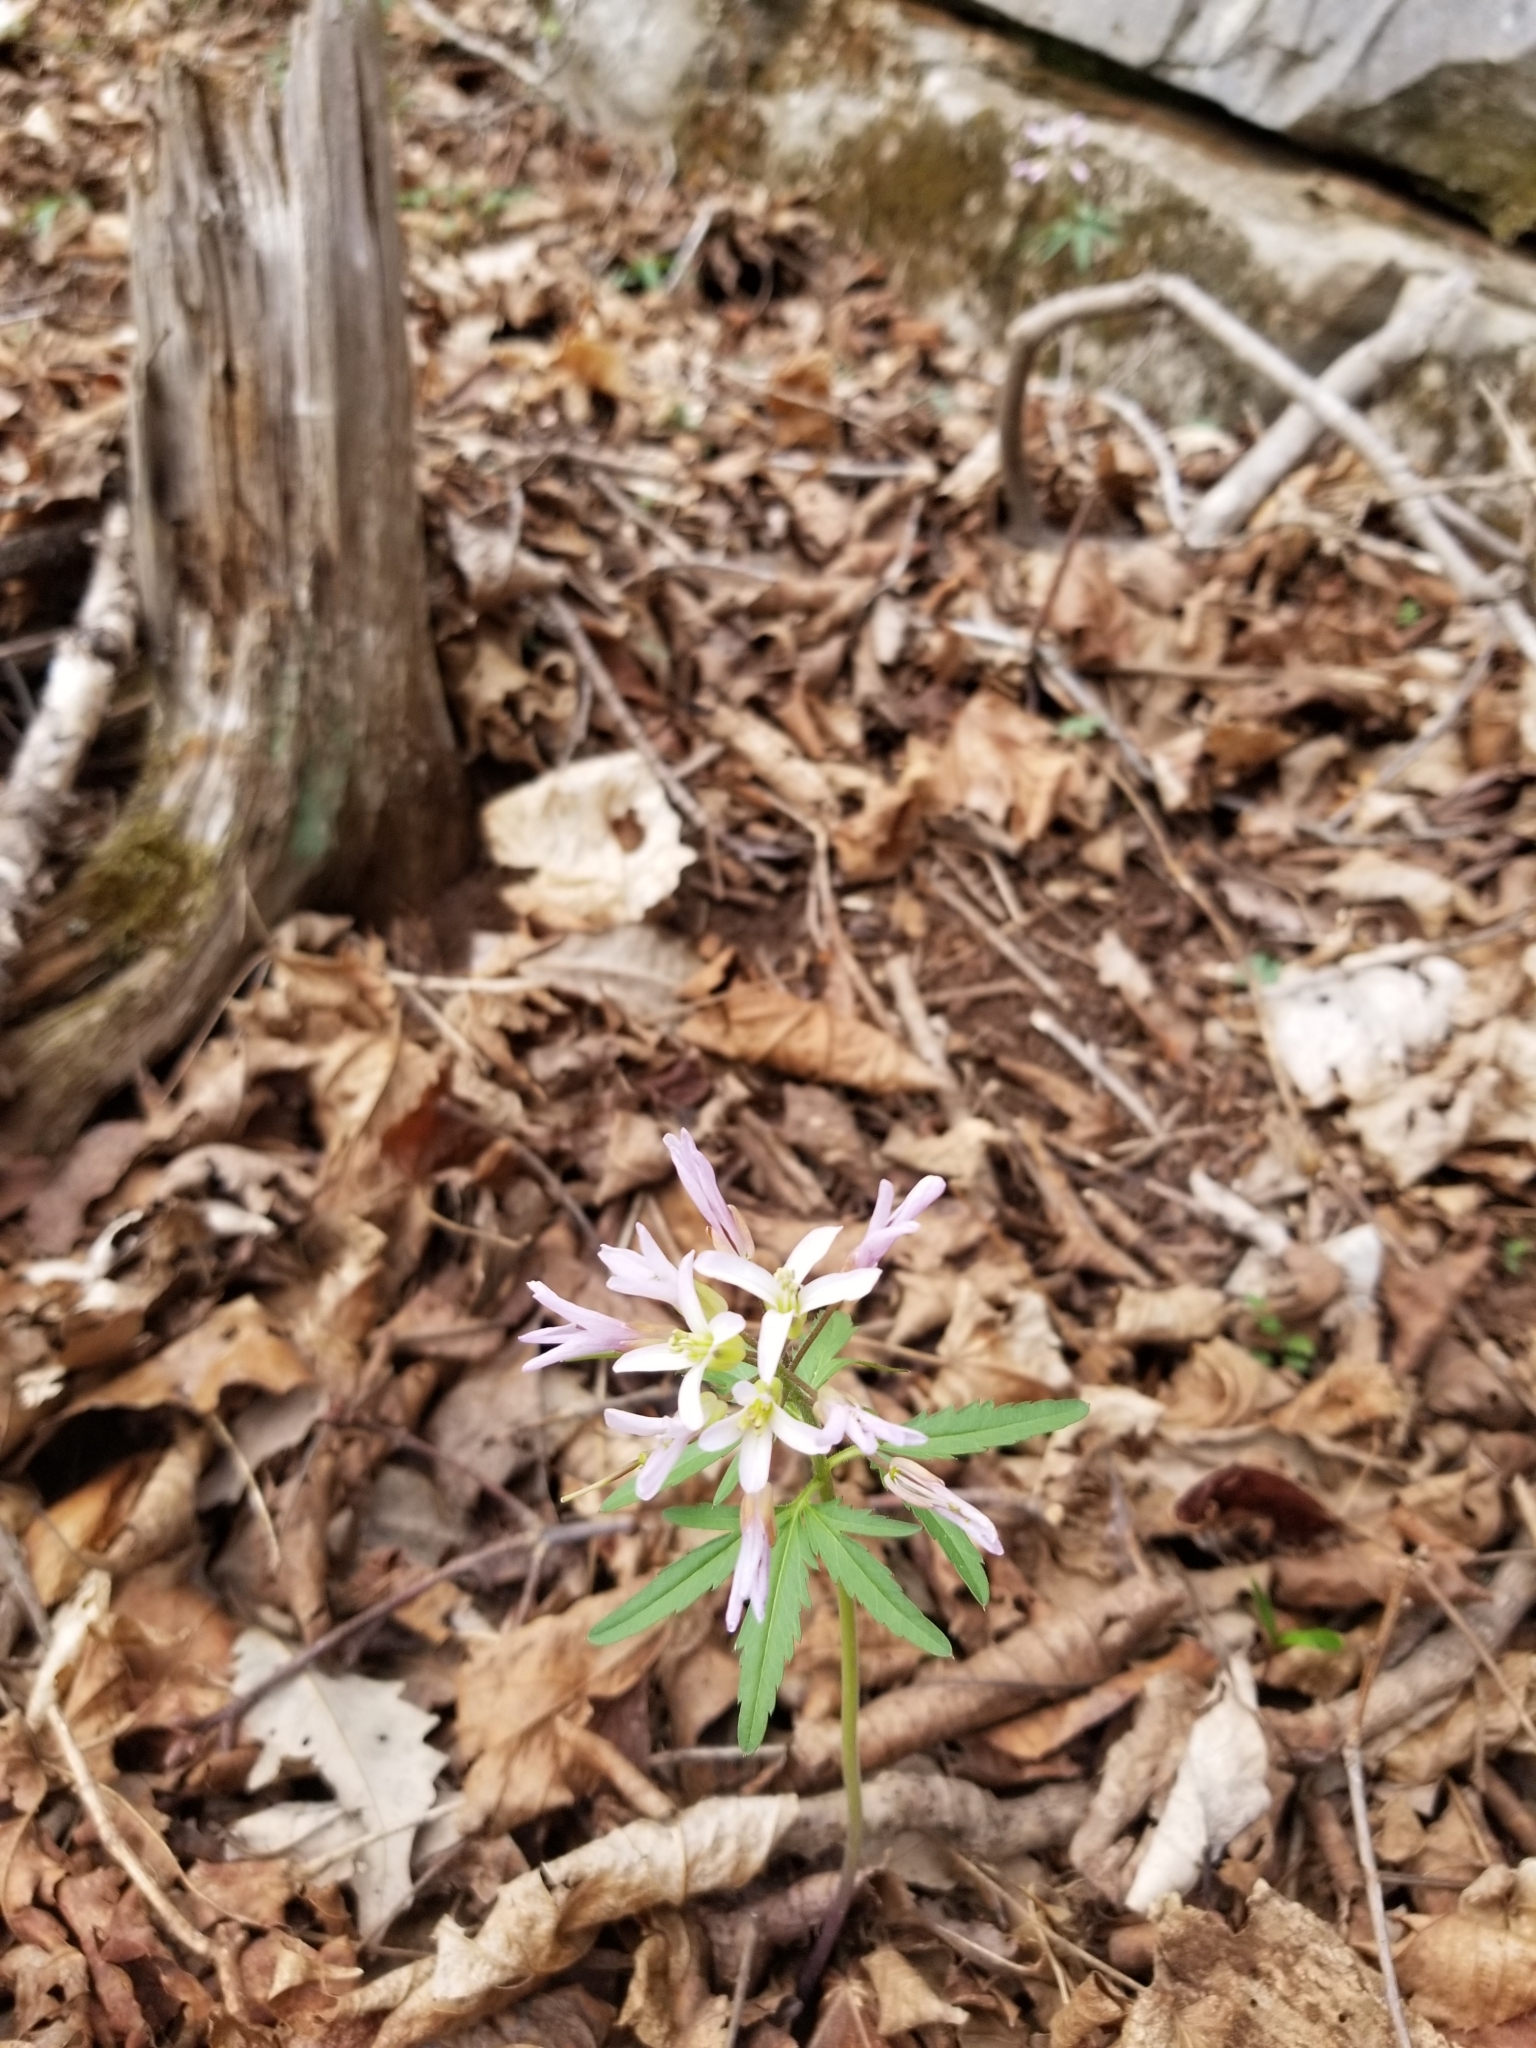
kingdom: Plantae
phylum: Tracheophyta
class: Magnoliopsida
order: Brassicales
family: Brassicaceae
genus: Cardamine
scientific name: Cardamine concatenata
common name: Cut-leaf toothcup
